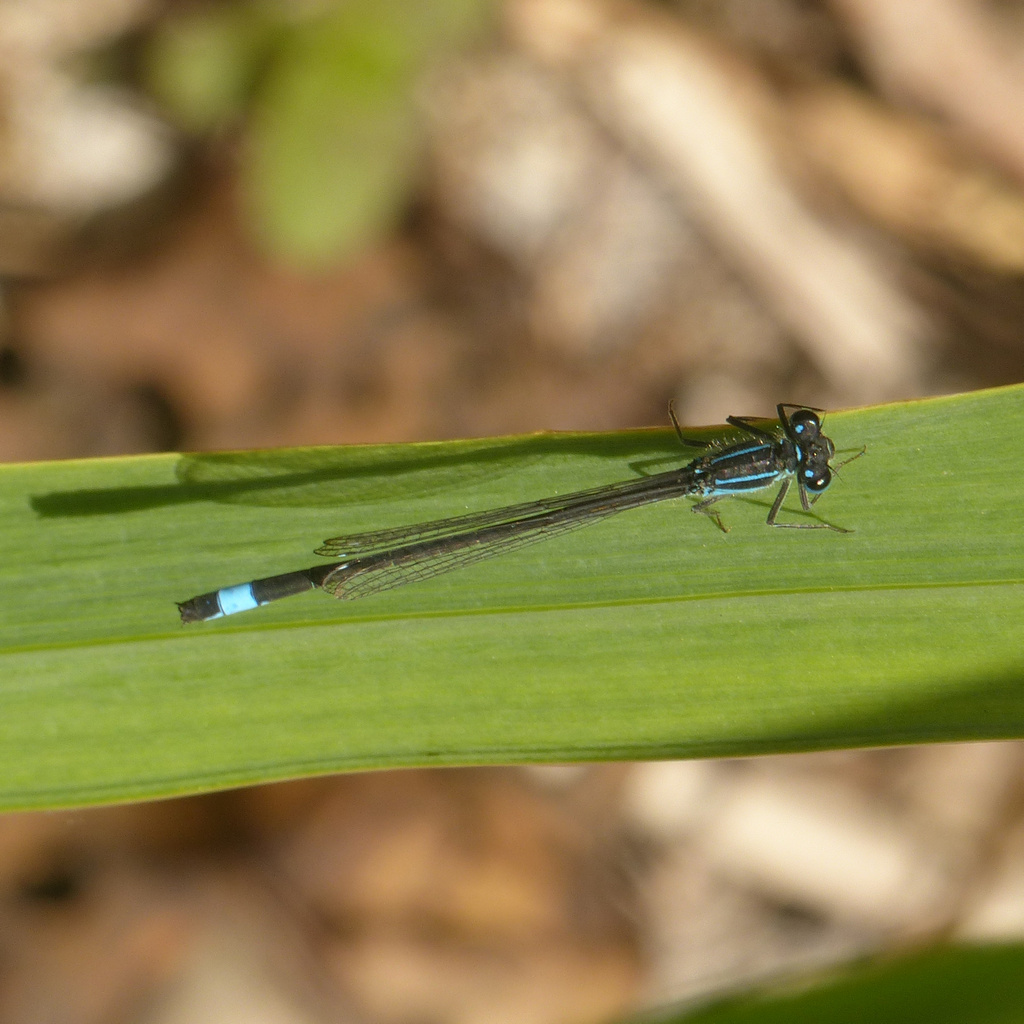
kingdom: Animalia
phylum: Arthropoda
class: Insecta
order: Odonata
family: Coenagrionidae
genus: Ischnura
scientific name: Ischnura elegans
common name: Blue-tailed damselfly
